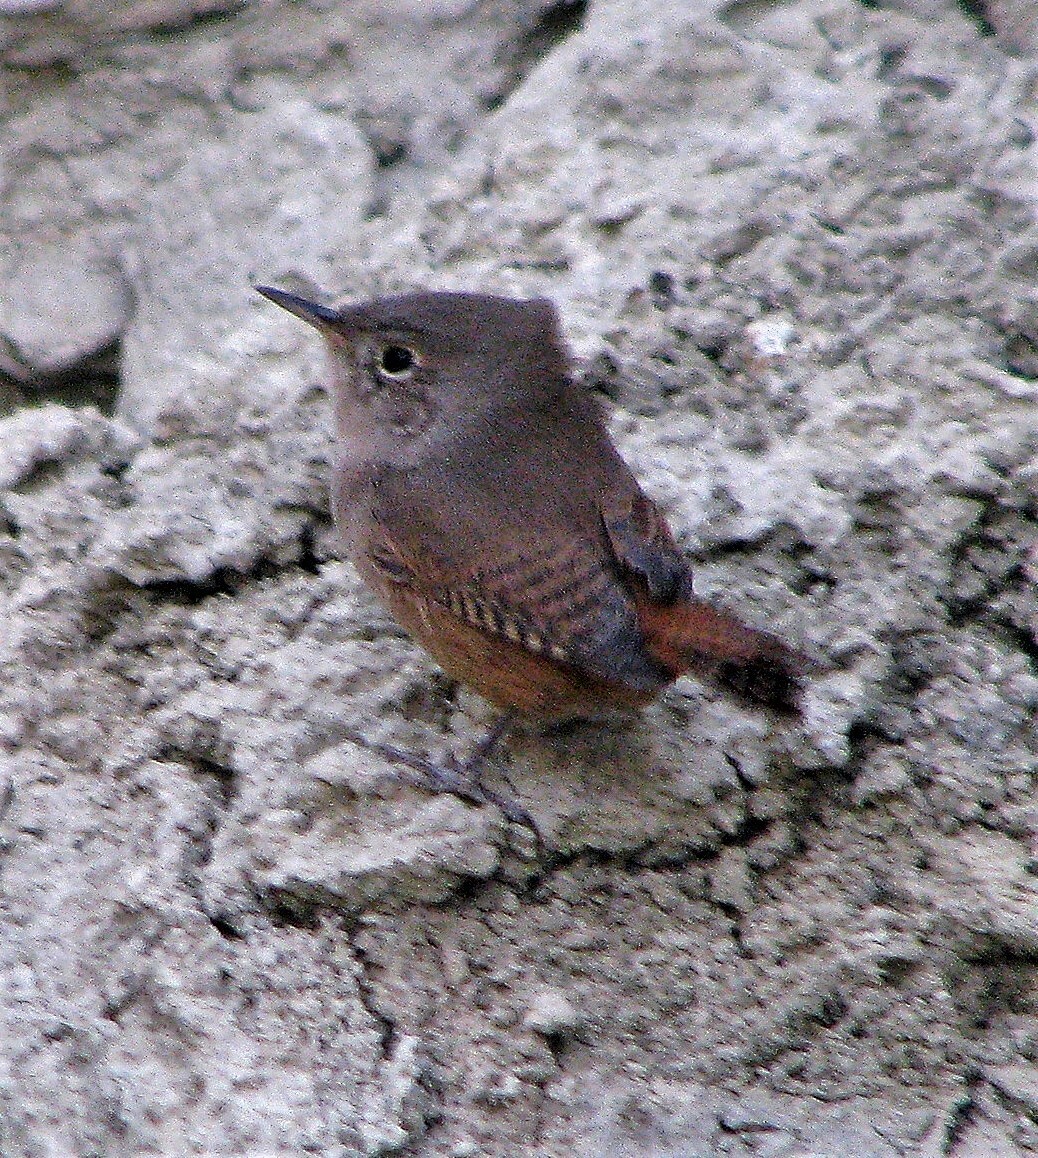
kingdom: Animalia
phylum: Chordata
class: Aves
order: Passeriformes
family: Troglodytidae
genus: Troglodytes
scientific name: Troglodytes aedon
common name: House wren
